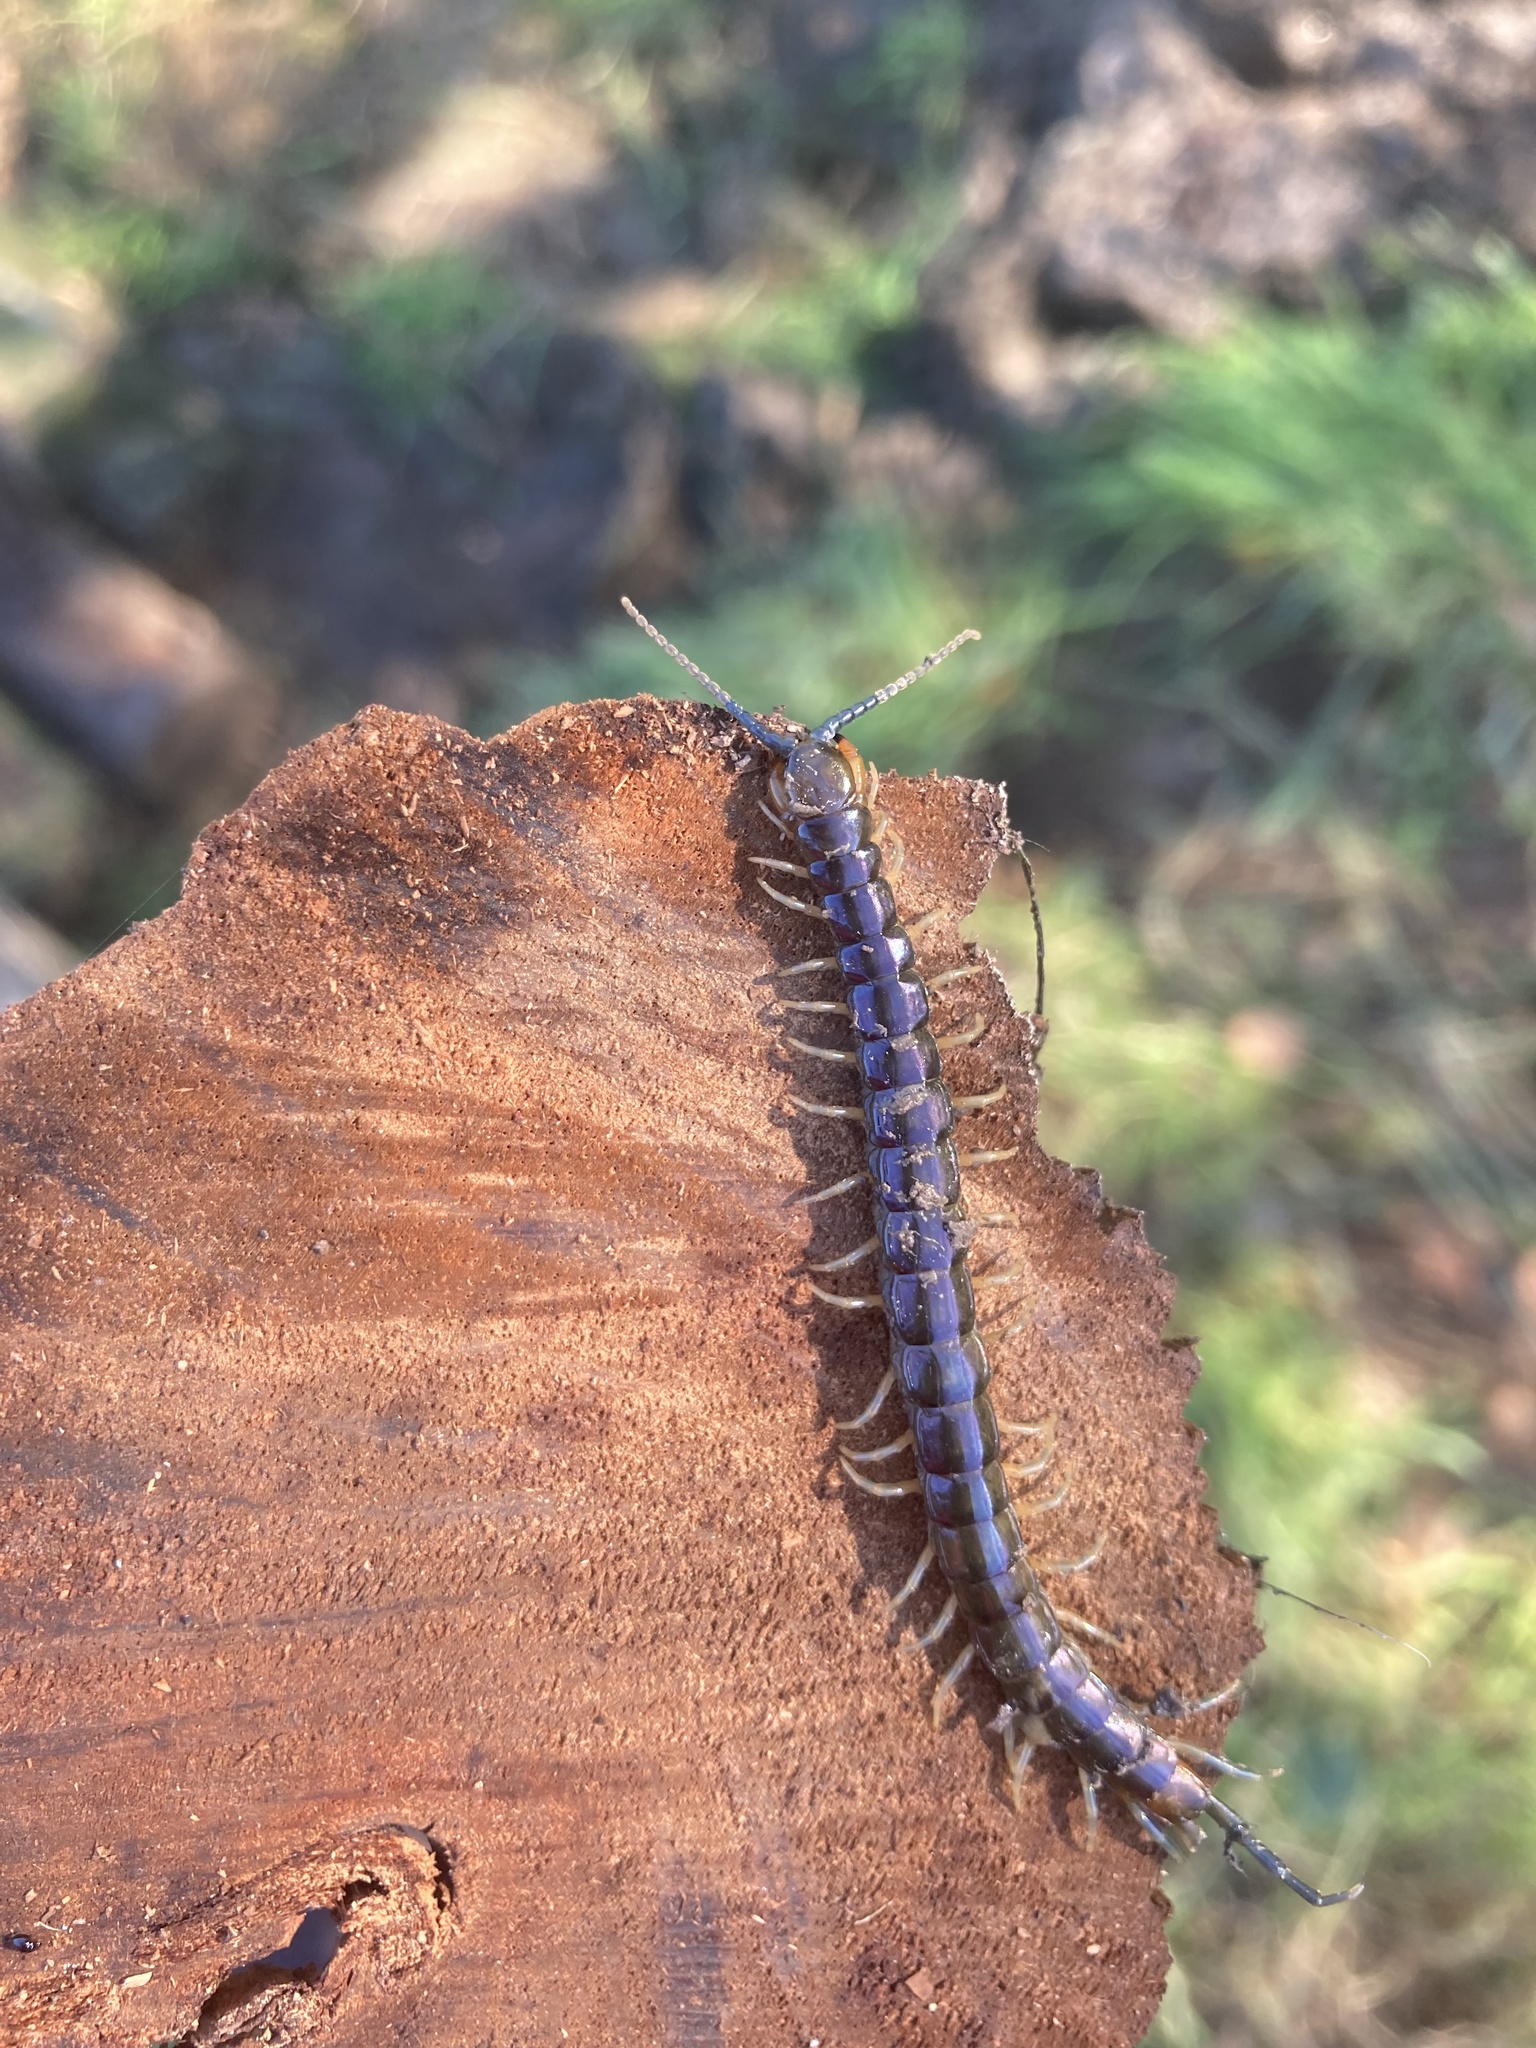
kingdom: Animalia
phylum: Arthropoda
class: Chilopoda
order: Scolopendromorpha
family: Scolopendridae
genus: Cormocephalus
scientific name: Cormocephalus rubriceps
